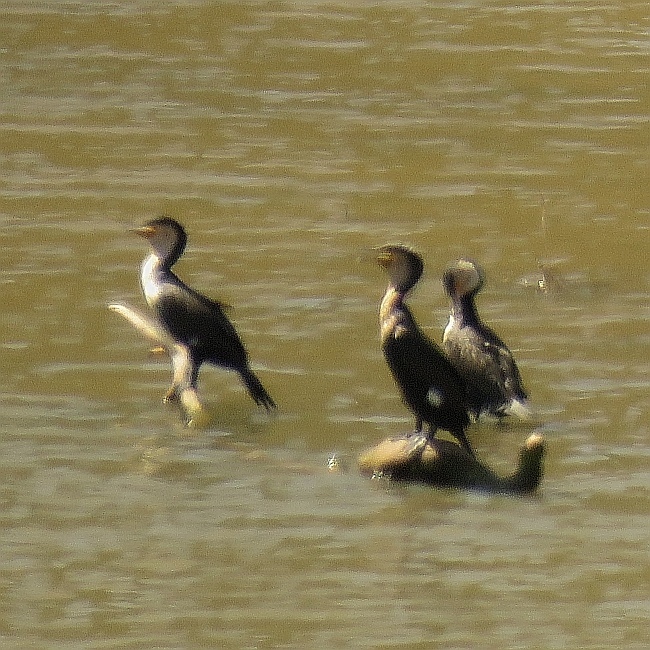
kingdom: Animalia
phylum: Chordata
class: Aves
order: Suliformes
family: Phalacrocoracidae
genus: Phalacrocorax
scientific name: Phalacrocorax carbo
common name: Great cormorant
